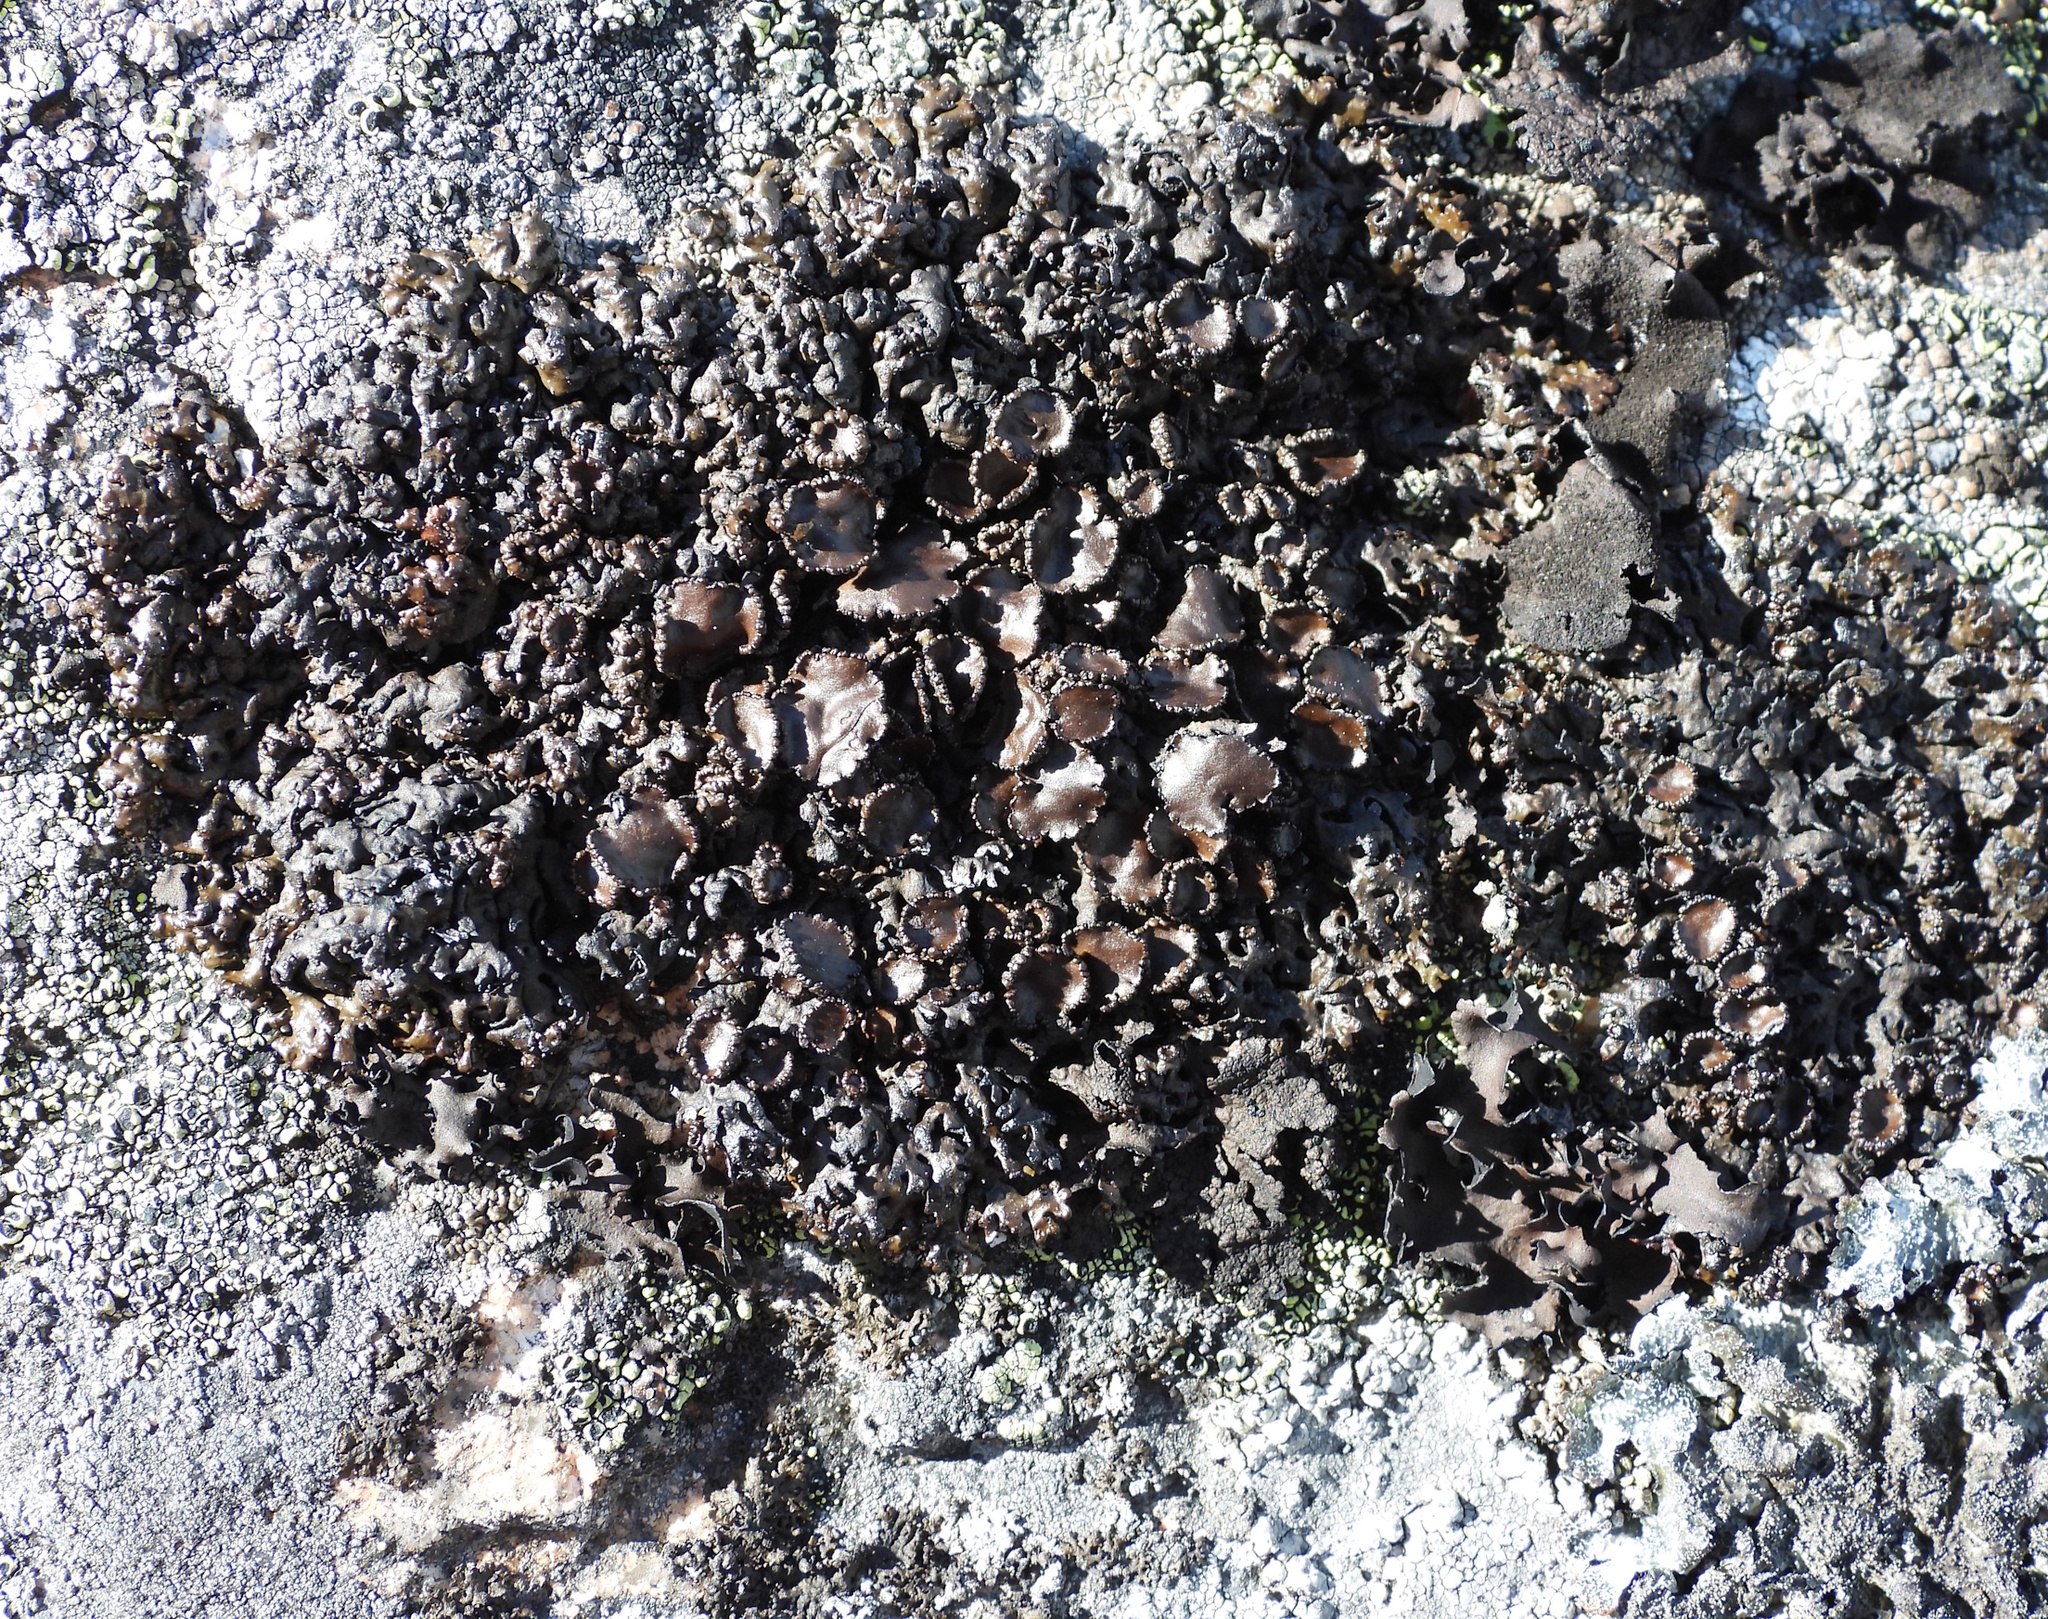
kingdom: Fungi
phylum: Ascomycota
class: Lecanoromycetes
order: Lecanorales
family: Parmeliaceae
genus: Melanelia
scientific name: Melanelia stygia
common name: Alpine camouflage lichen
